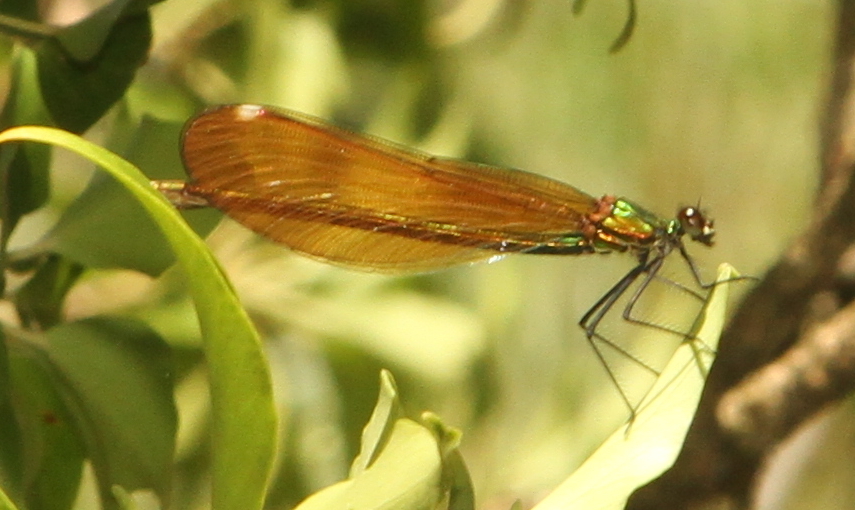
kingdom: Animalia
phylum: Arthropoda
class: Insecta
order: Odonata
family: Calopterygidae
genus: Calopteryx
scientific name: Calopteryx virgo
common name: Beautiful demoiselle
